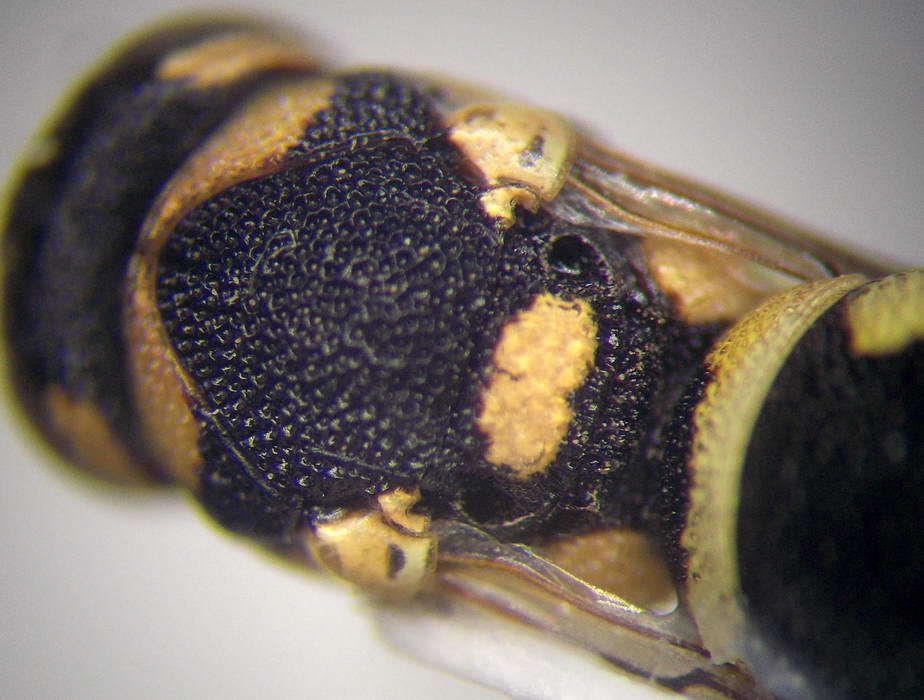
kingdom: Animalia
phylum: Arthropoda
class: Insecta
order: Hymenoptera
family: Eumenidae
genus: Eustenancistrocerus
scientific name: Eustenancistrocerus amadanensis
